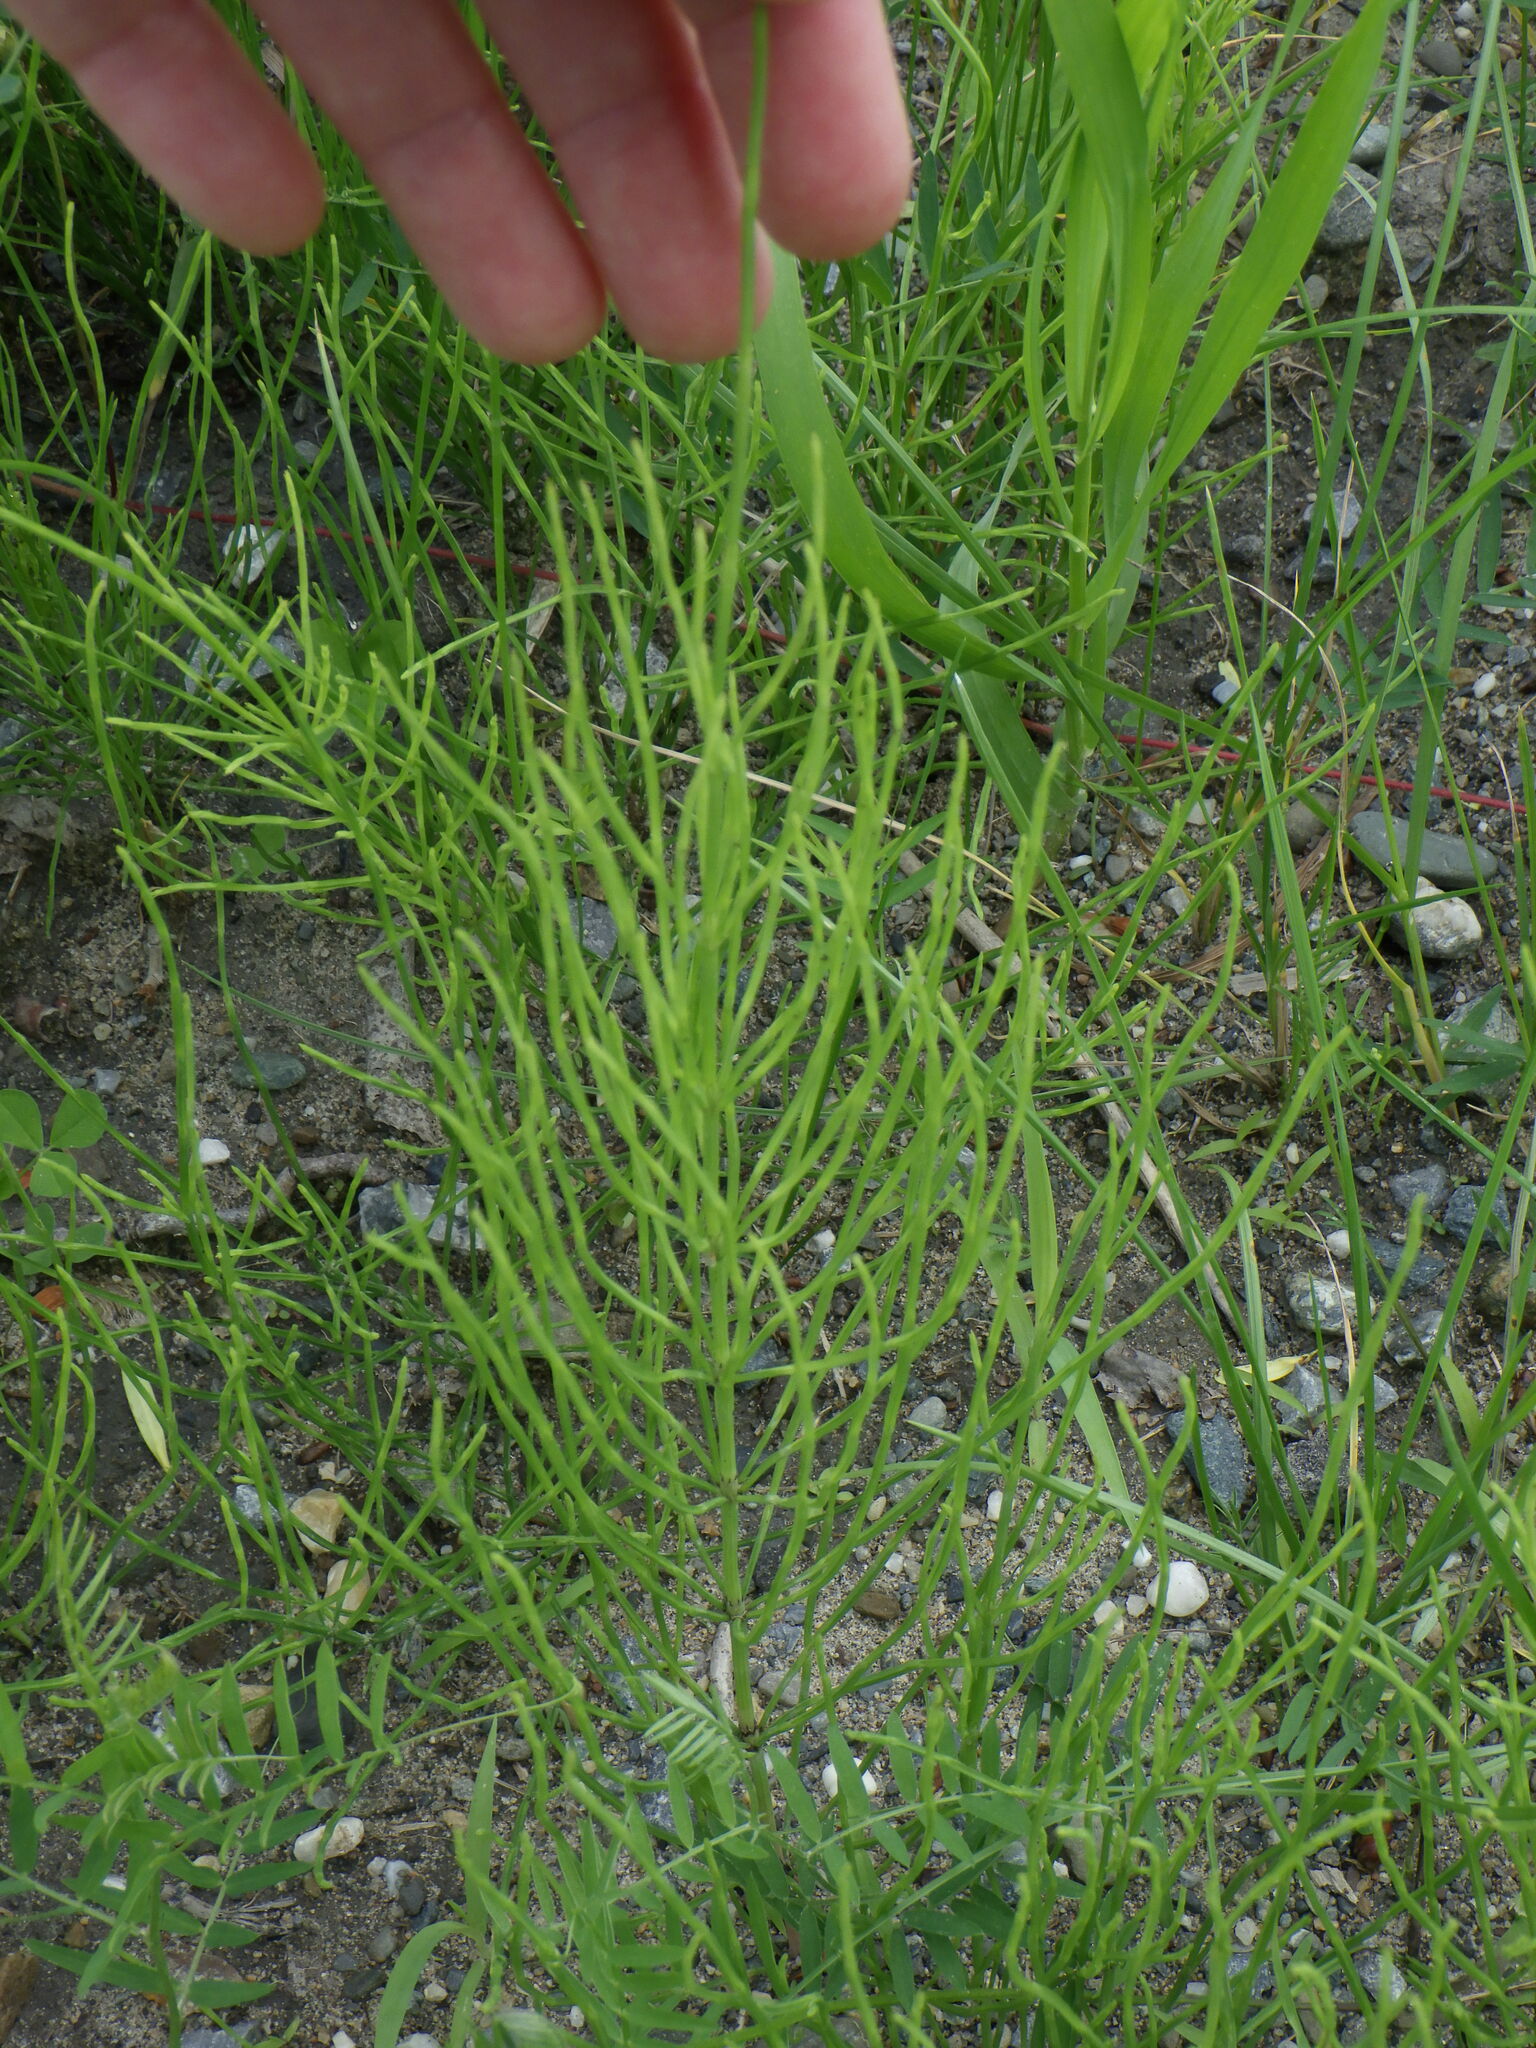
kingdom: Plantae
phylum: Tracheophyta
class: Polypodiopsida
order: Equisetales
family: Equisetaceae
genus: Equisetum
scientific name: Equisetum arvense
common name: Field horsetail
